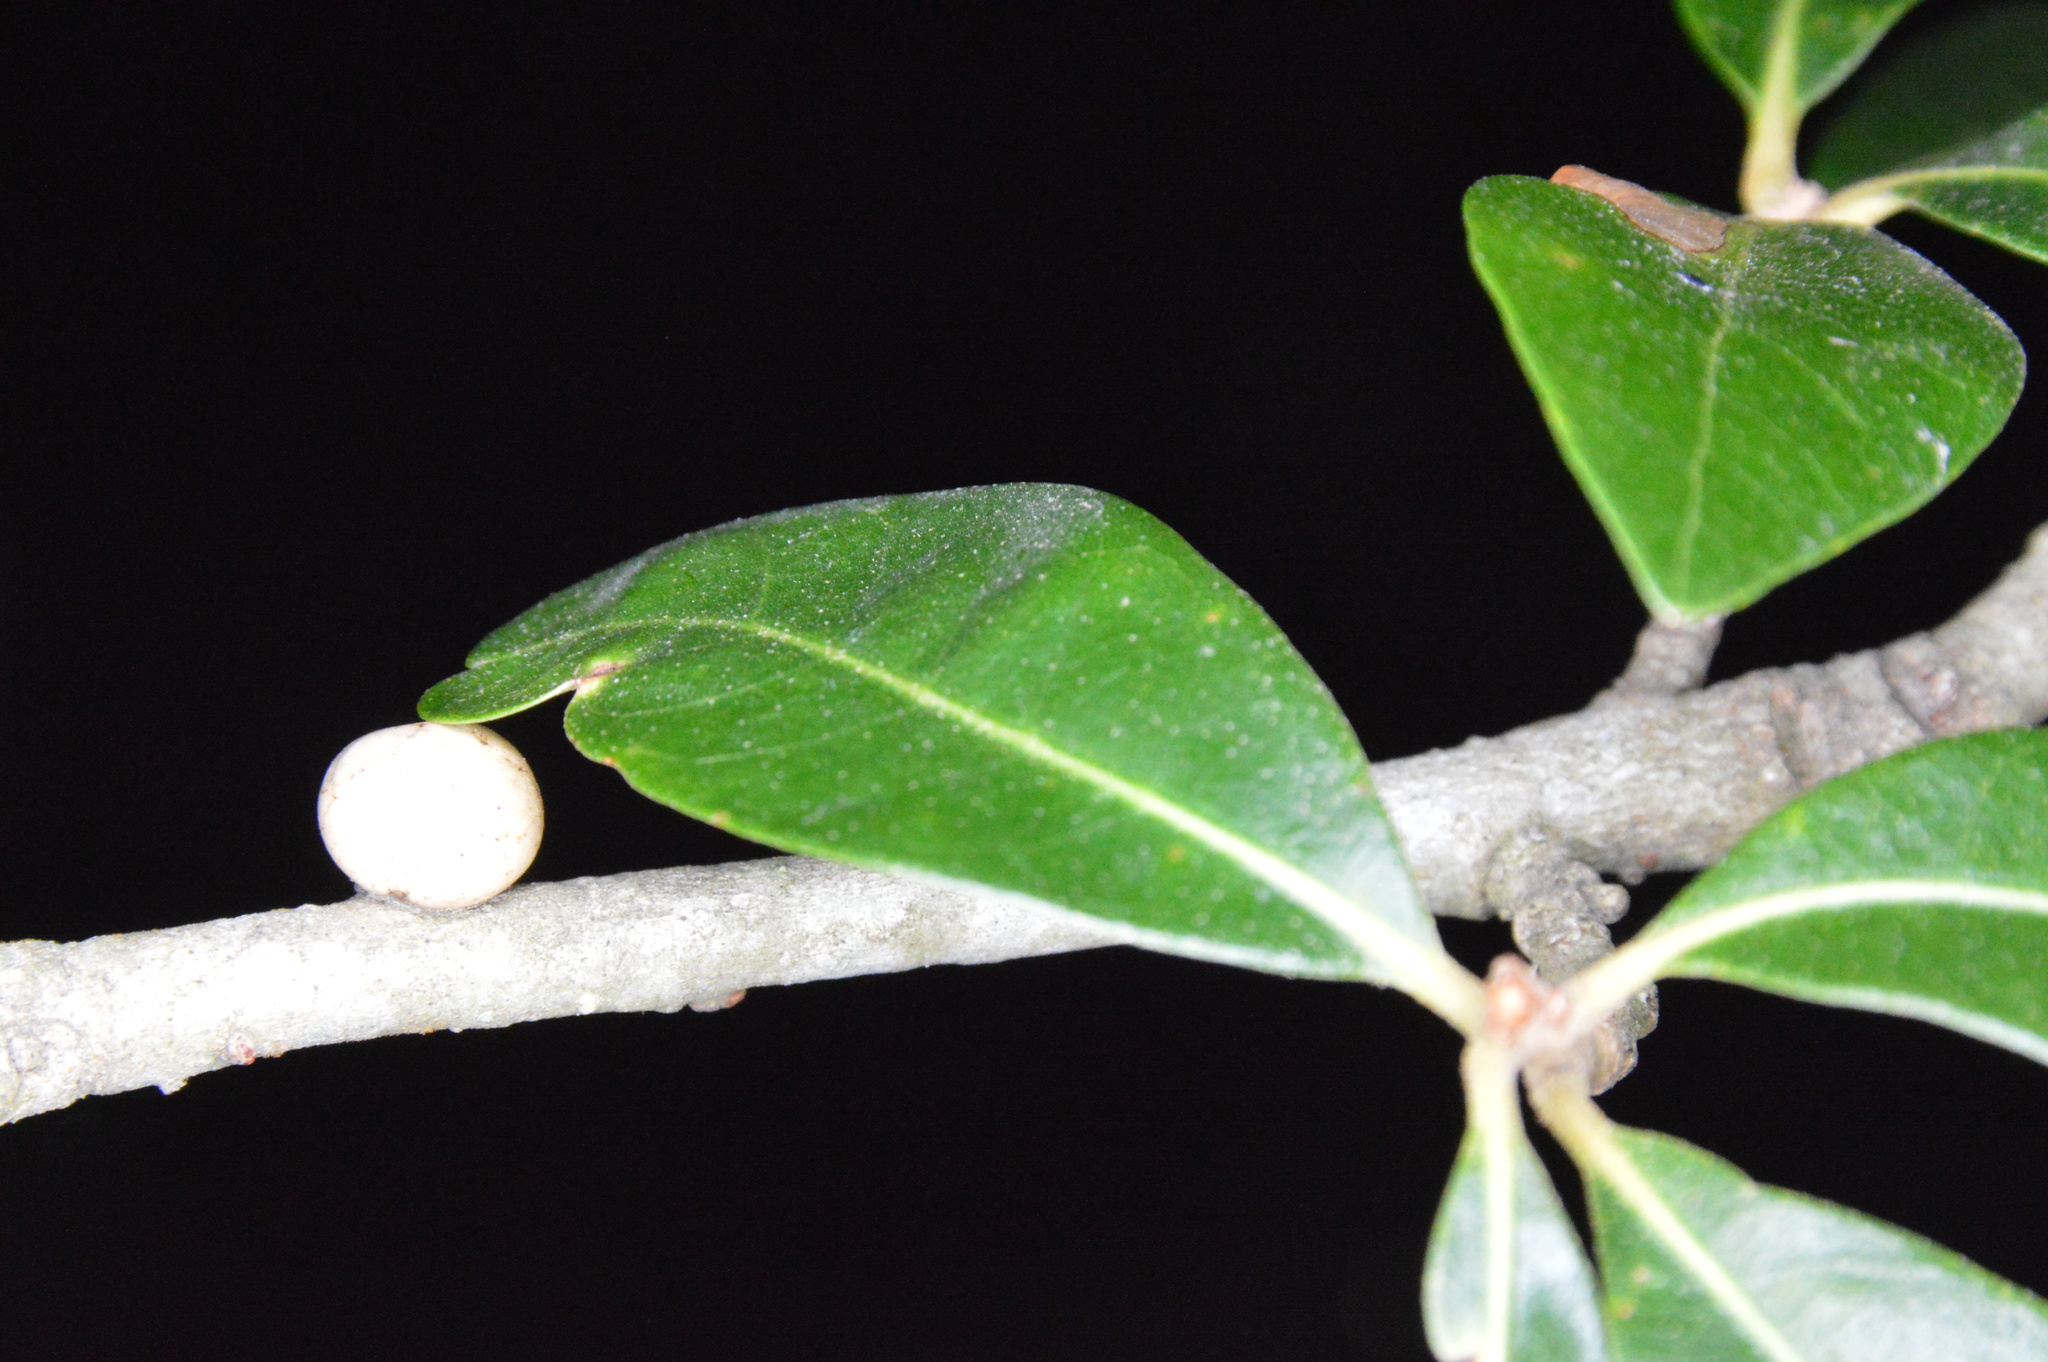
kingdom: Animalia
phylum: Arthropoda
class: Insecta
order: Hymenoptera
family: Cynipidae
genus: Disholcaspis
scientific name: Disholcaspis
